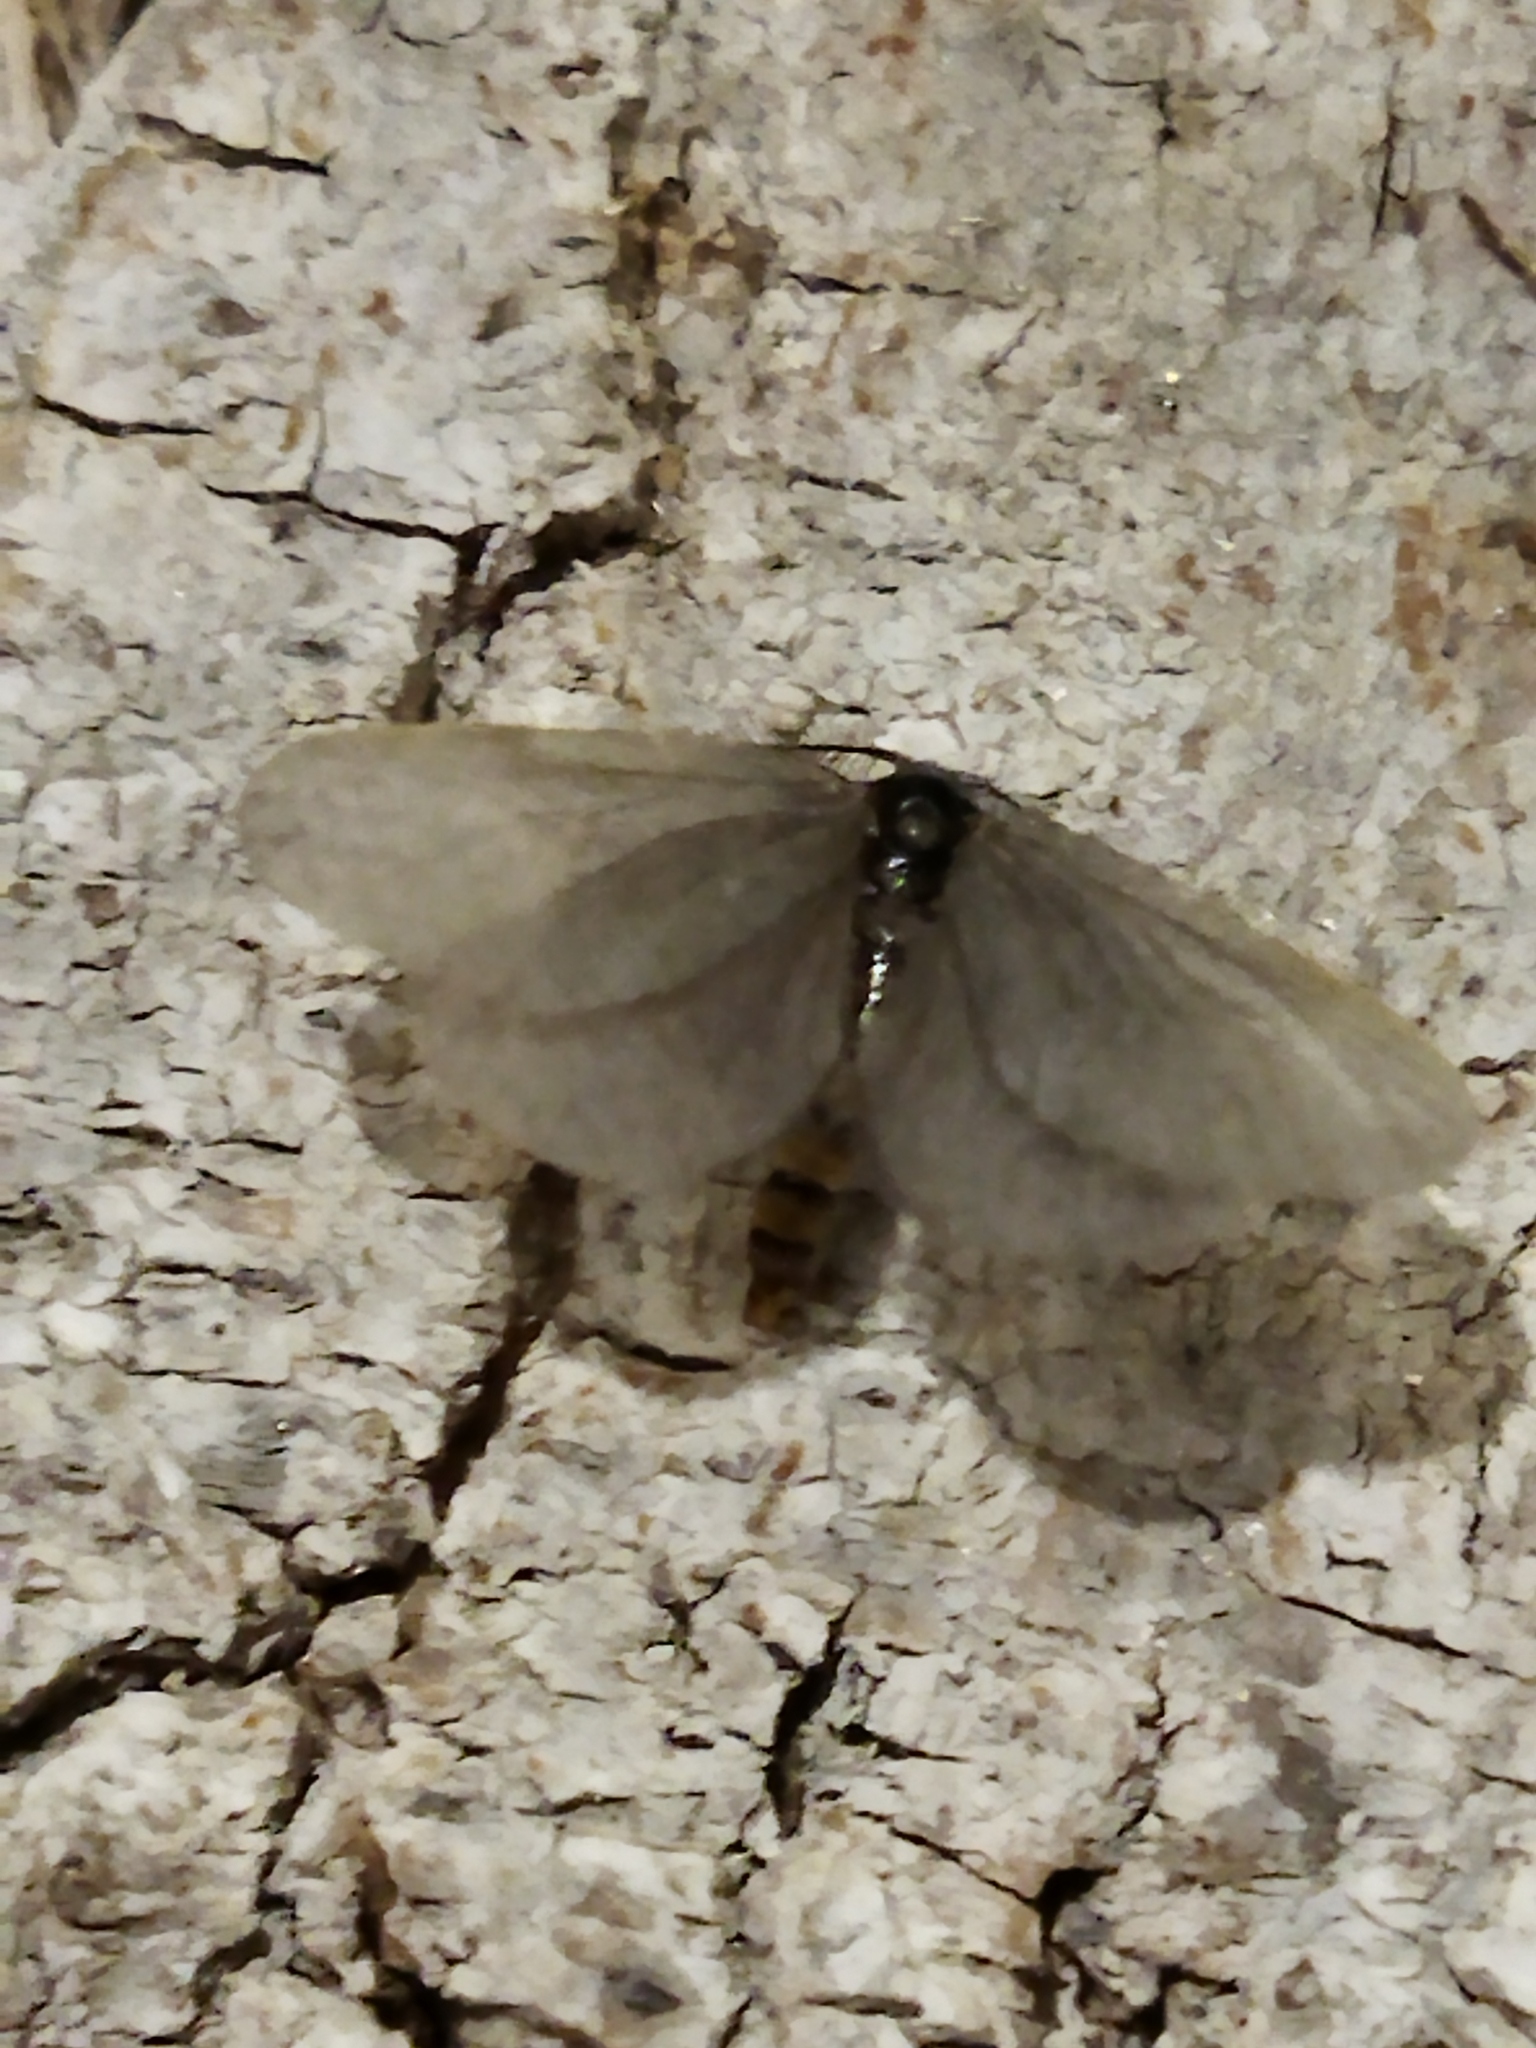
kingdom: Animalia
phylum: Arthropoda
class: Insecta
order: Lepidoptera
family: Psychidae
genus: Rebelia
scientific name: Rebelia perlucidella
